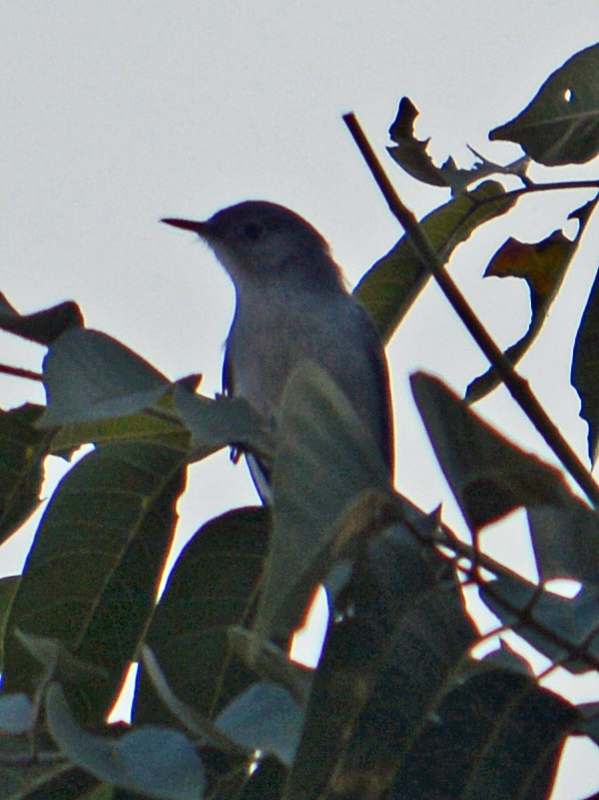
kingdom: Animalia
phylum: Chordata
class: Aves
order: Passeriformes
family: Polioptilidae
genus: Polioptila
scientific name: Polioptila caerulea
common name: Blue-gray gnatcatcher
